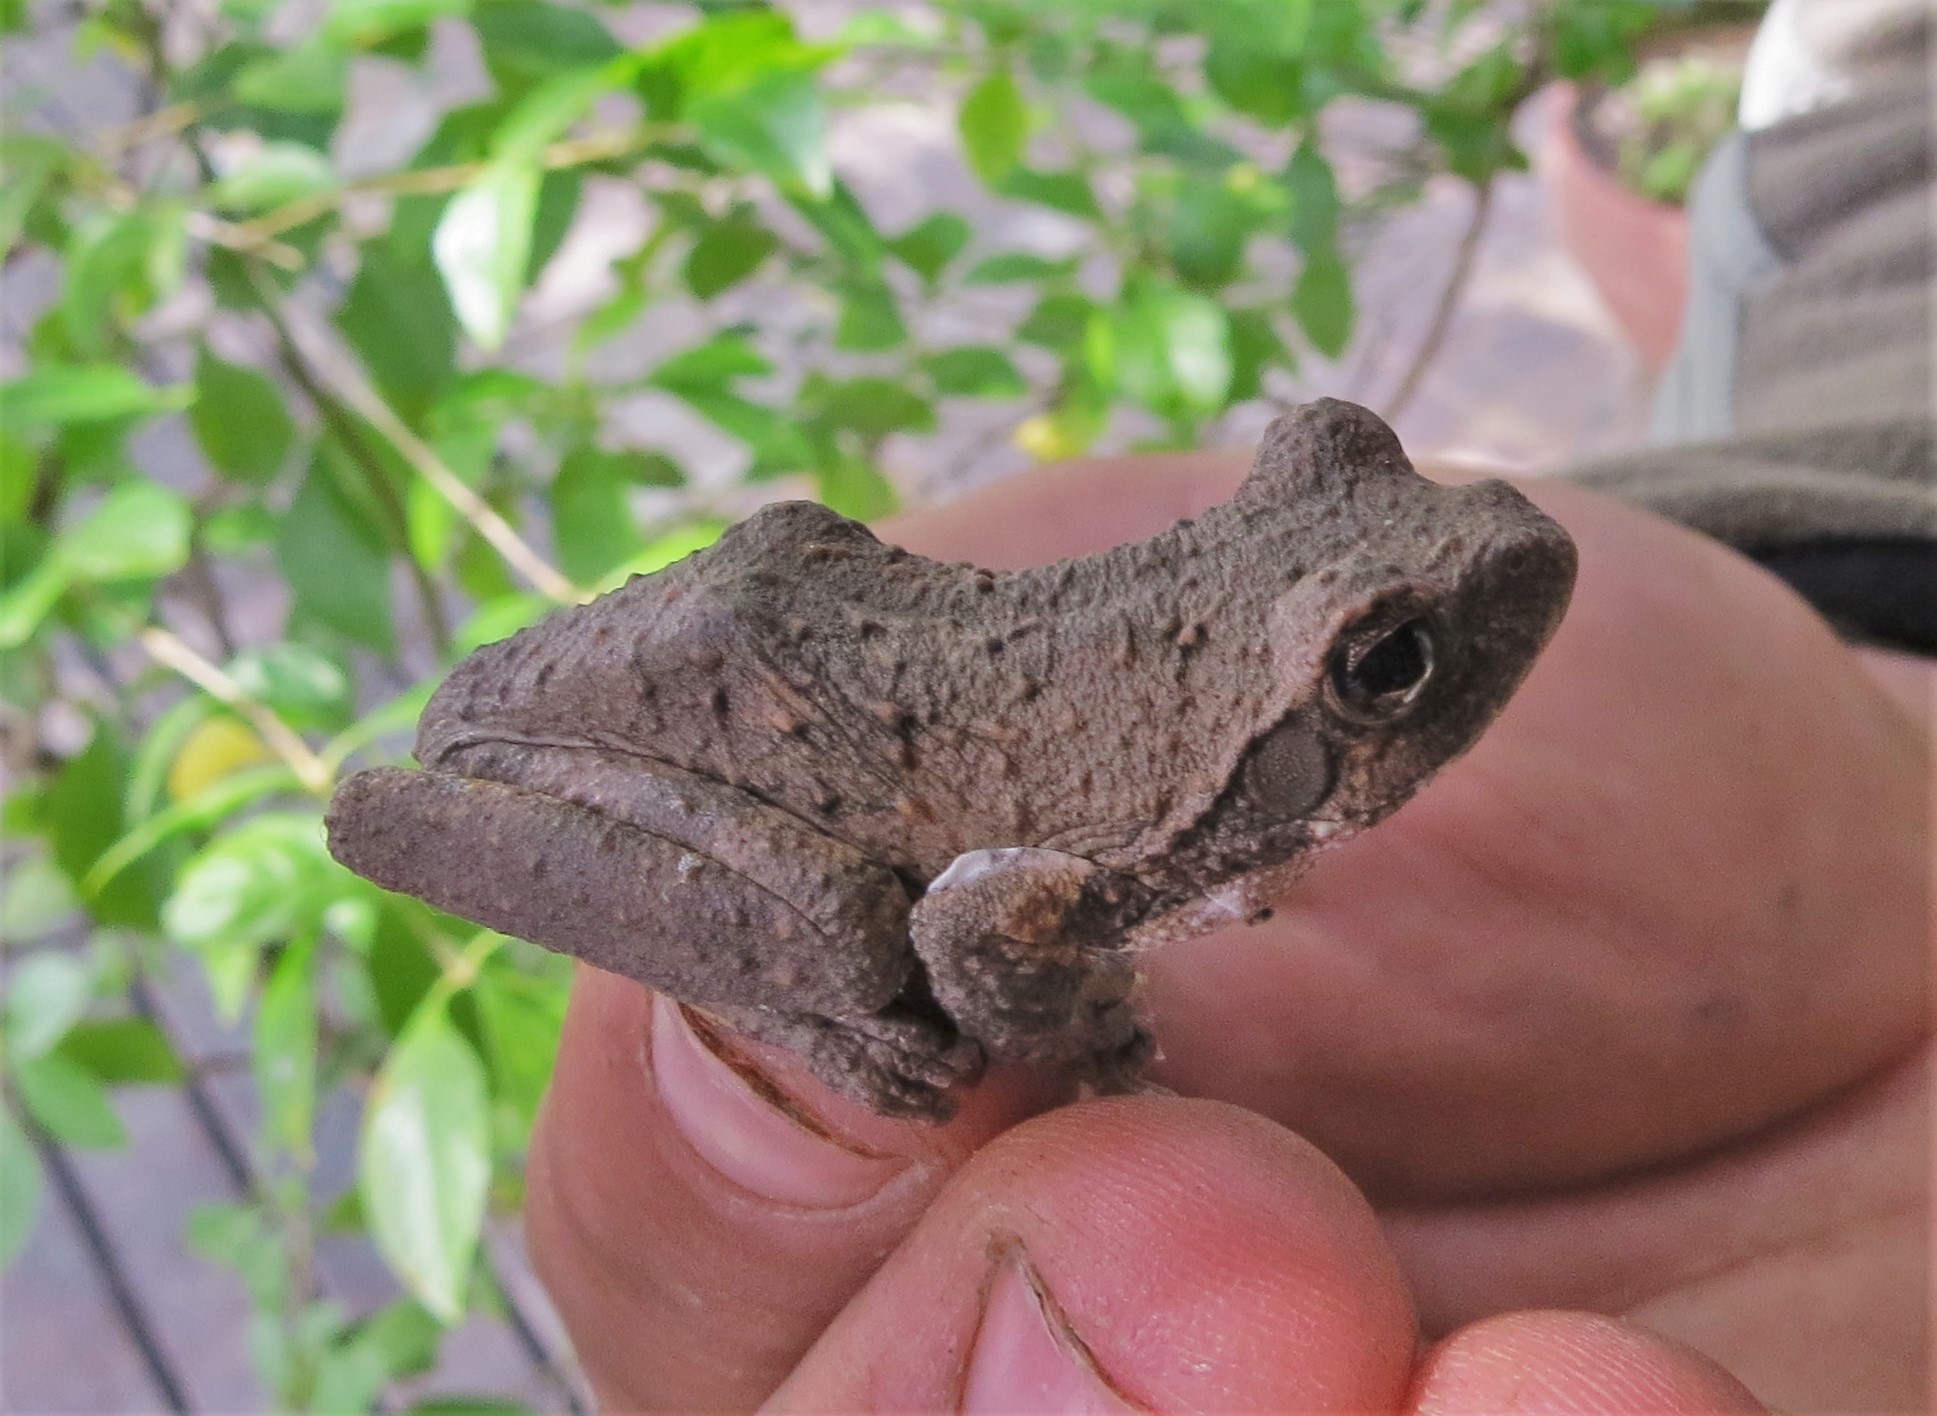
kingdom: Animalia
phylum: Chordata
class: Amphibia
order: Anura
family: Rhacophoridae
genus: Chiromantis
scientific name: Chiromantis xerampelina
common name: African gray treefrog
